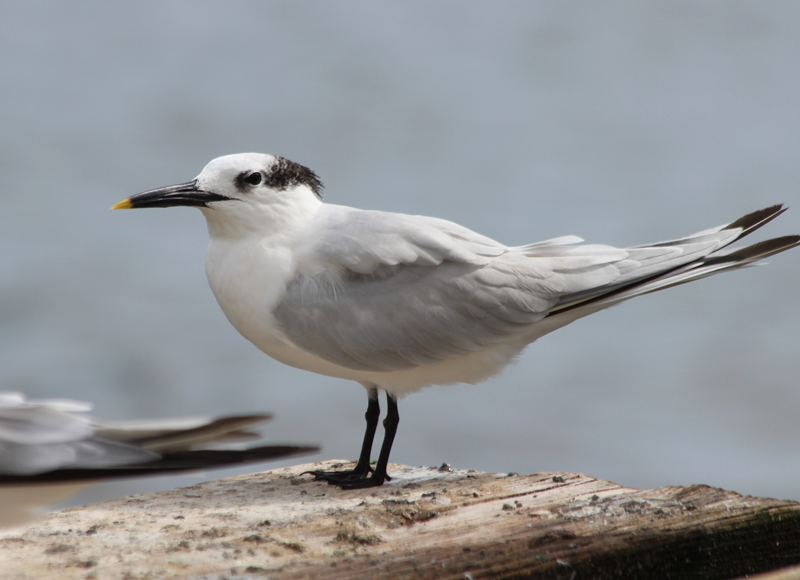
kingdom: Animalia
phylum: Chordata
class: Aves
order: Charadriiformes
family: Laridae
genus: Thalasseus
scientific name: Thalasseus sandvicensis
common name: Sandwich tern
